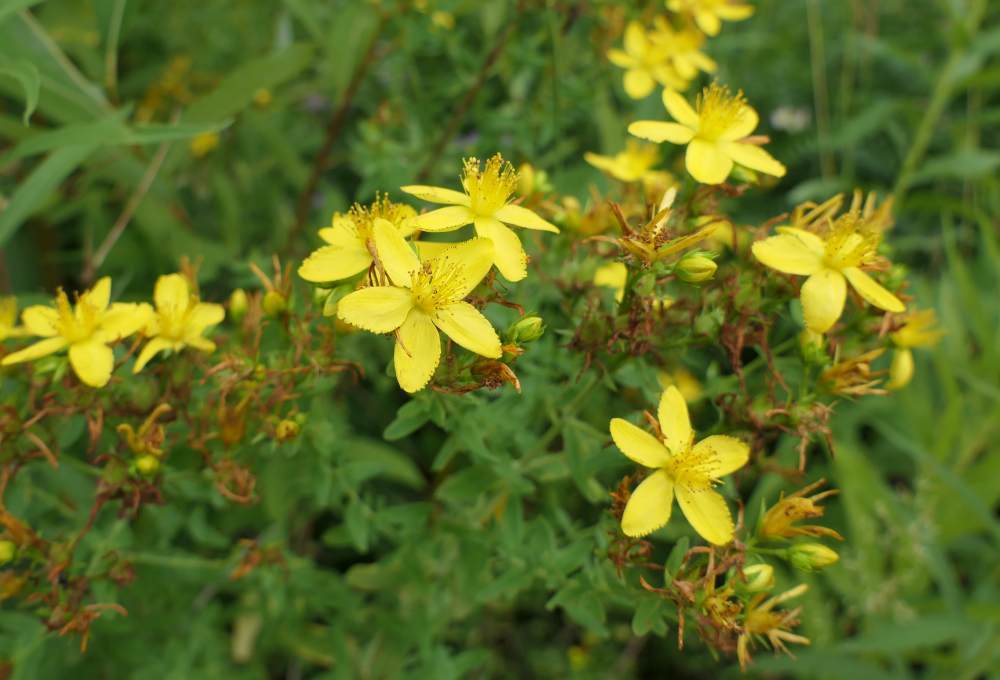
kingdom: Plantae
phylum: Tracheophyta
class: Magnoliopsida
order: Malpighiales
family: Hypericaceae
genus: Hypericum
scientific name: Hypericum perforatum
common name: Common st. johnswort
